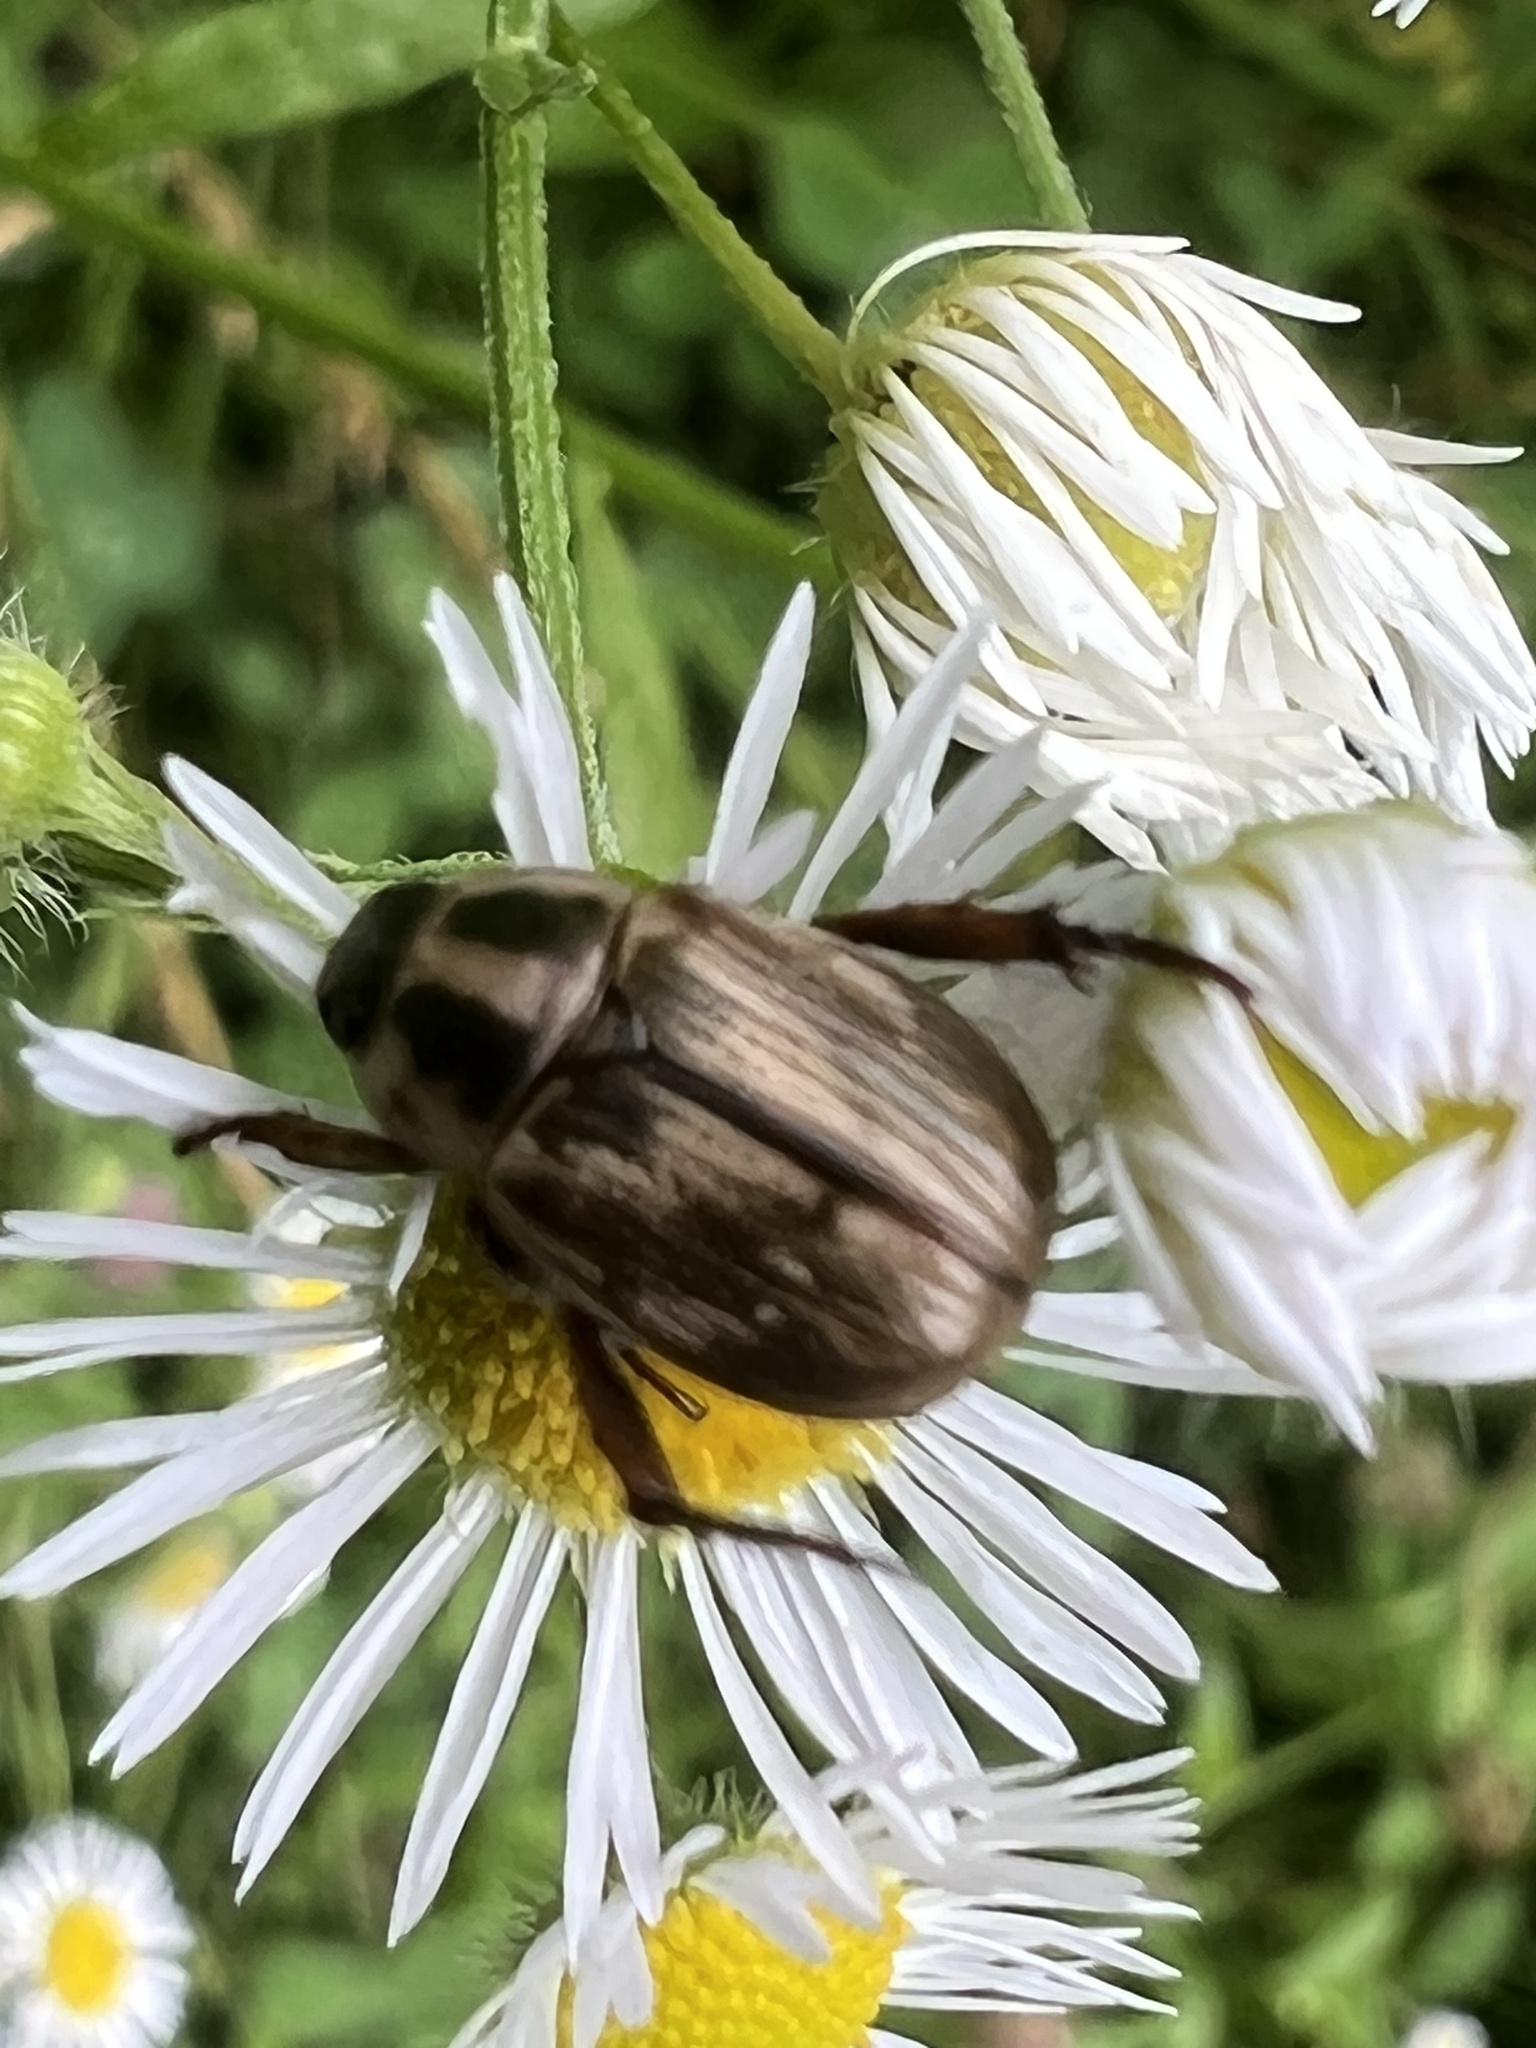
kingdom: Animalia
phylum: Arthropoda
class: Insecta
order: Coleoptera
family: Scarabaeidae
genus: Exomala
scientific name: Exomala orientalis
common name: Oriental beetle
